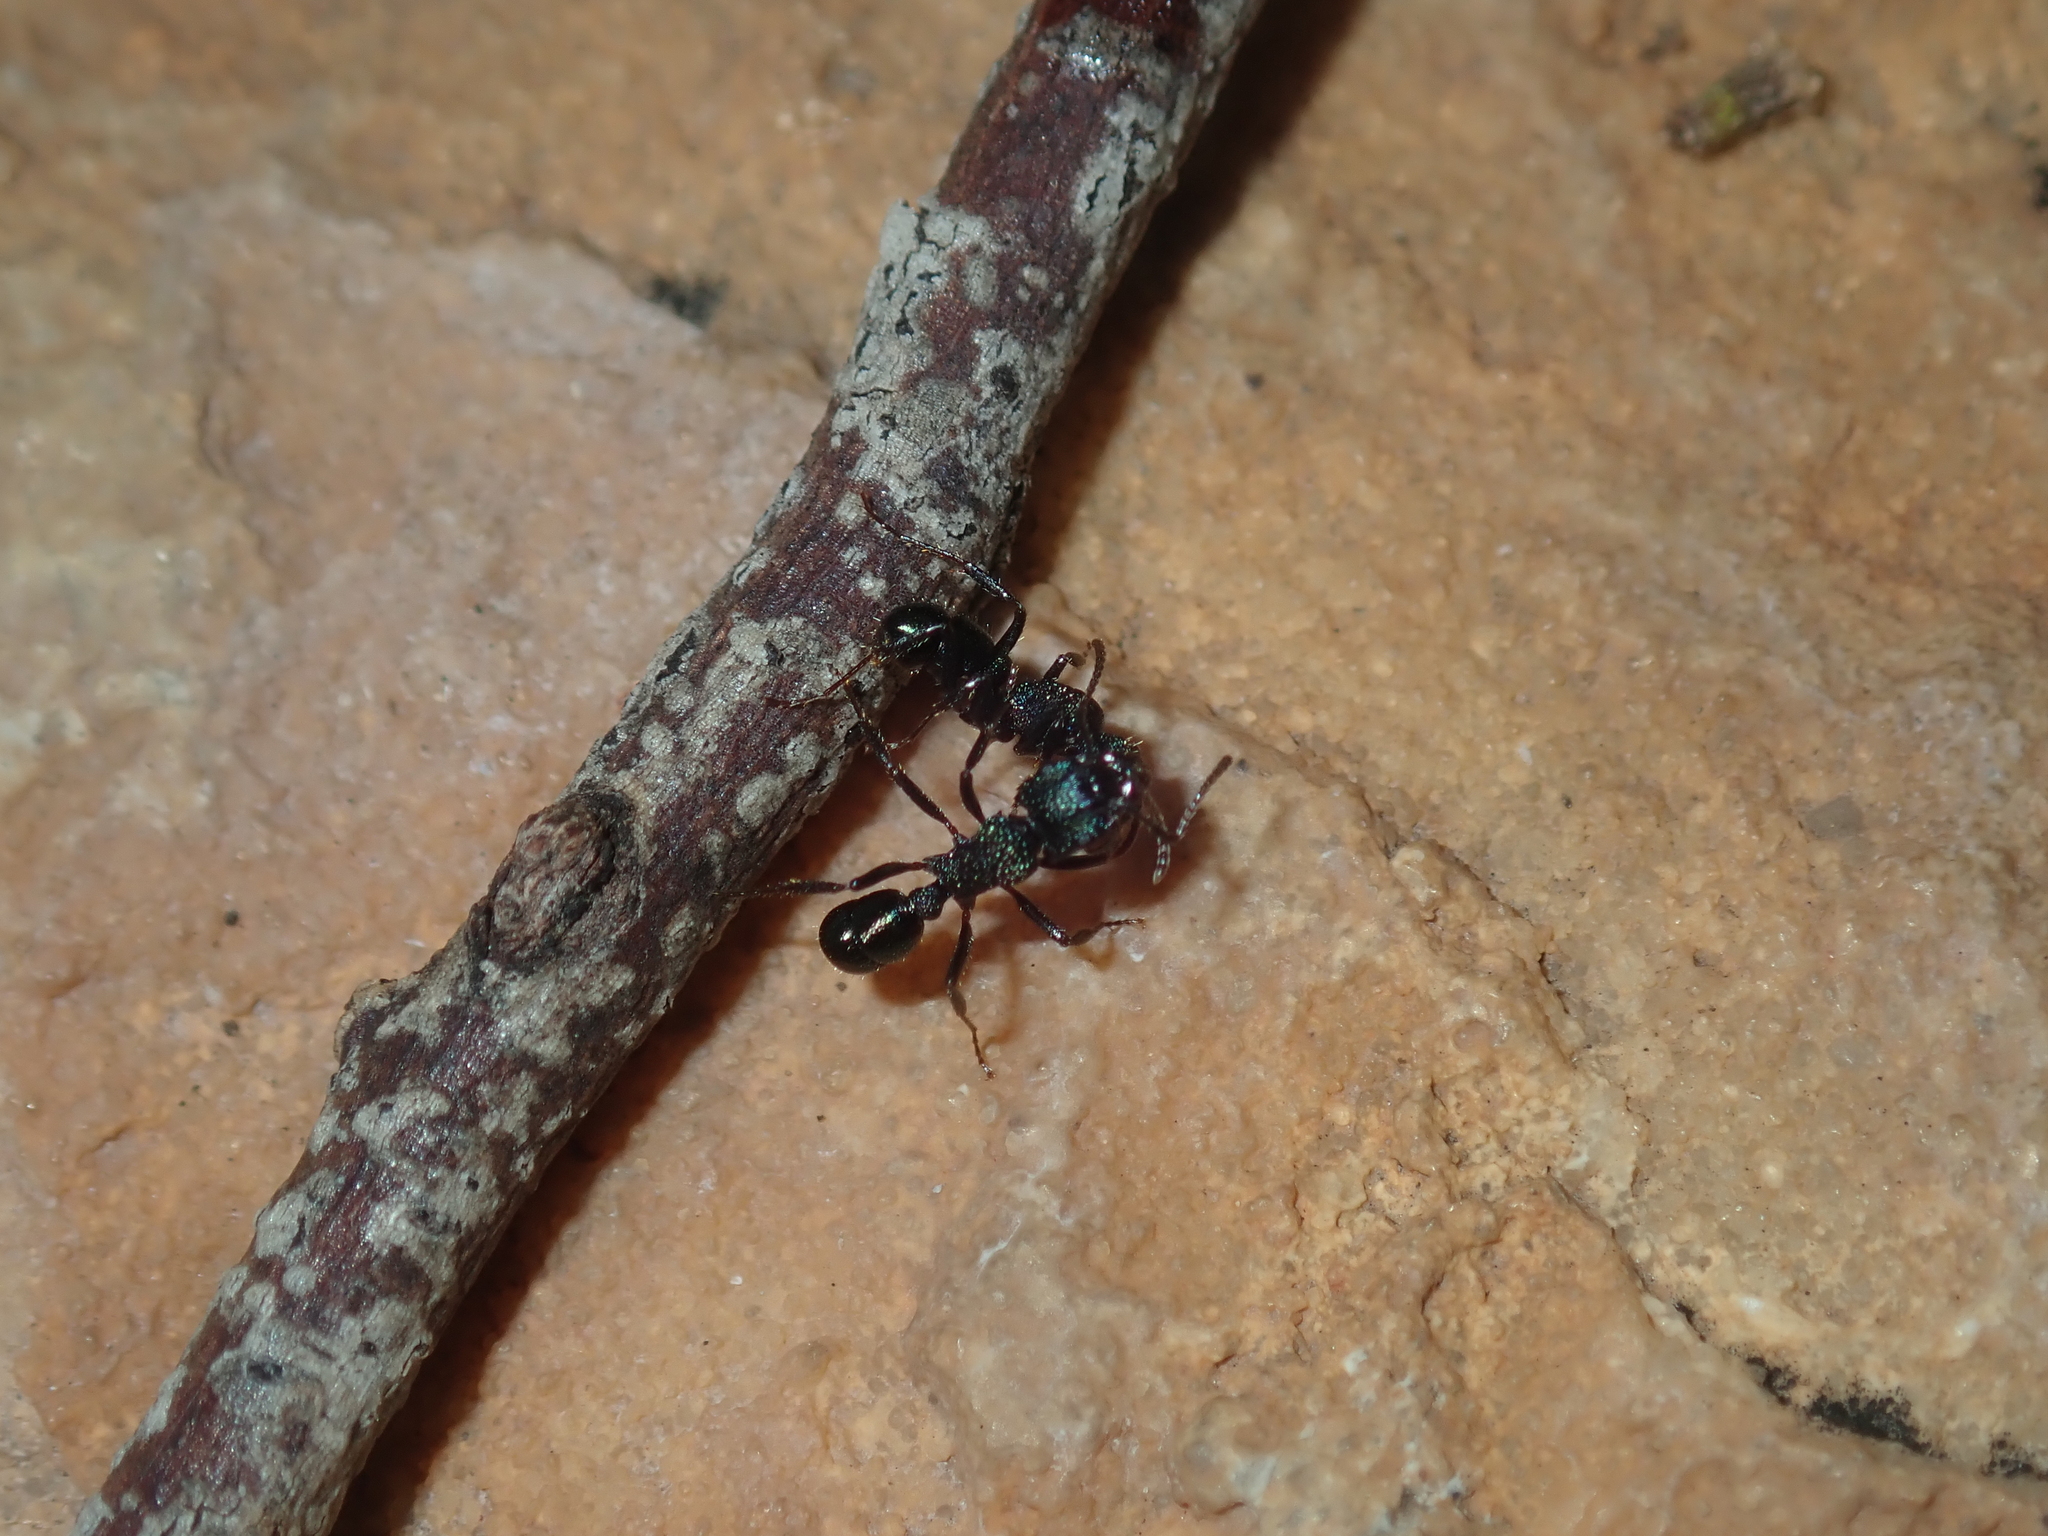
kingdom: Animalia
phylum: Arthropoda
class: Insecta
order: Hymenoptera
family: Formicidae
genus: Rhytidoponera
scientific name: Rhytidoponera metallica
